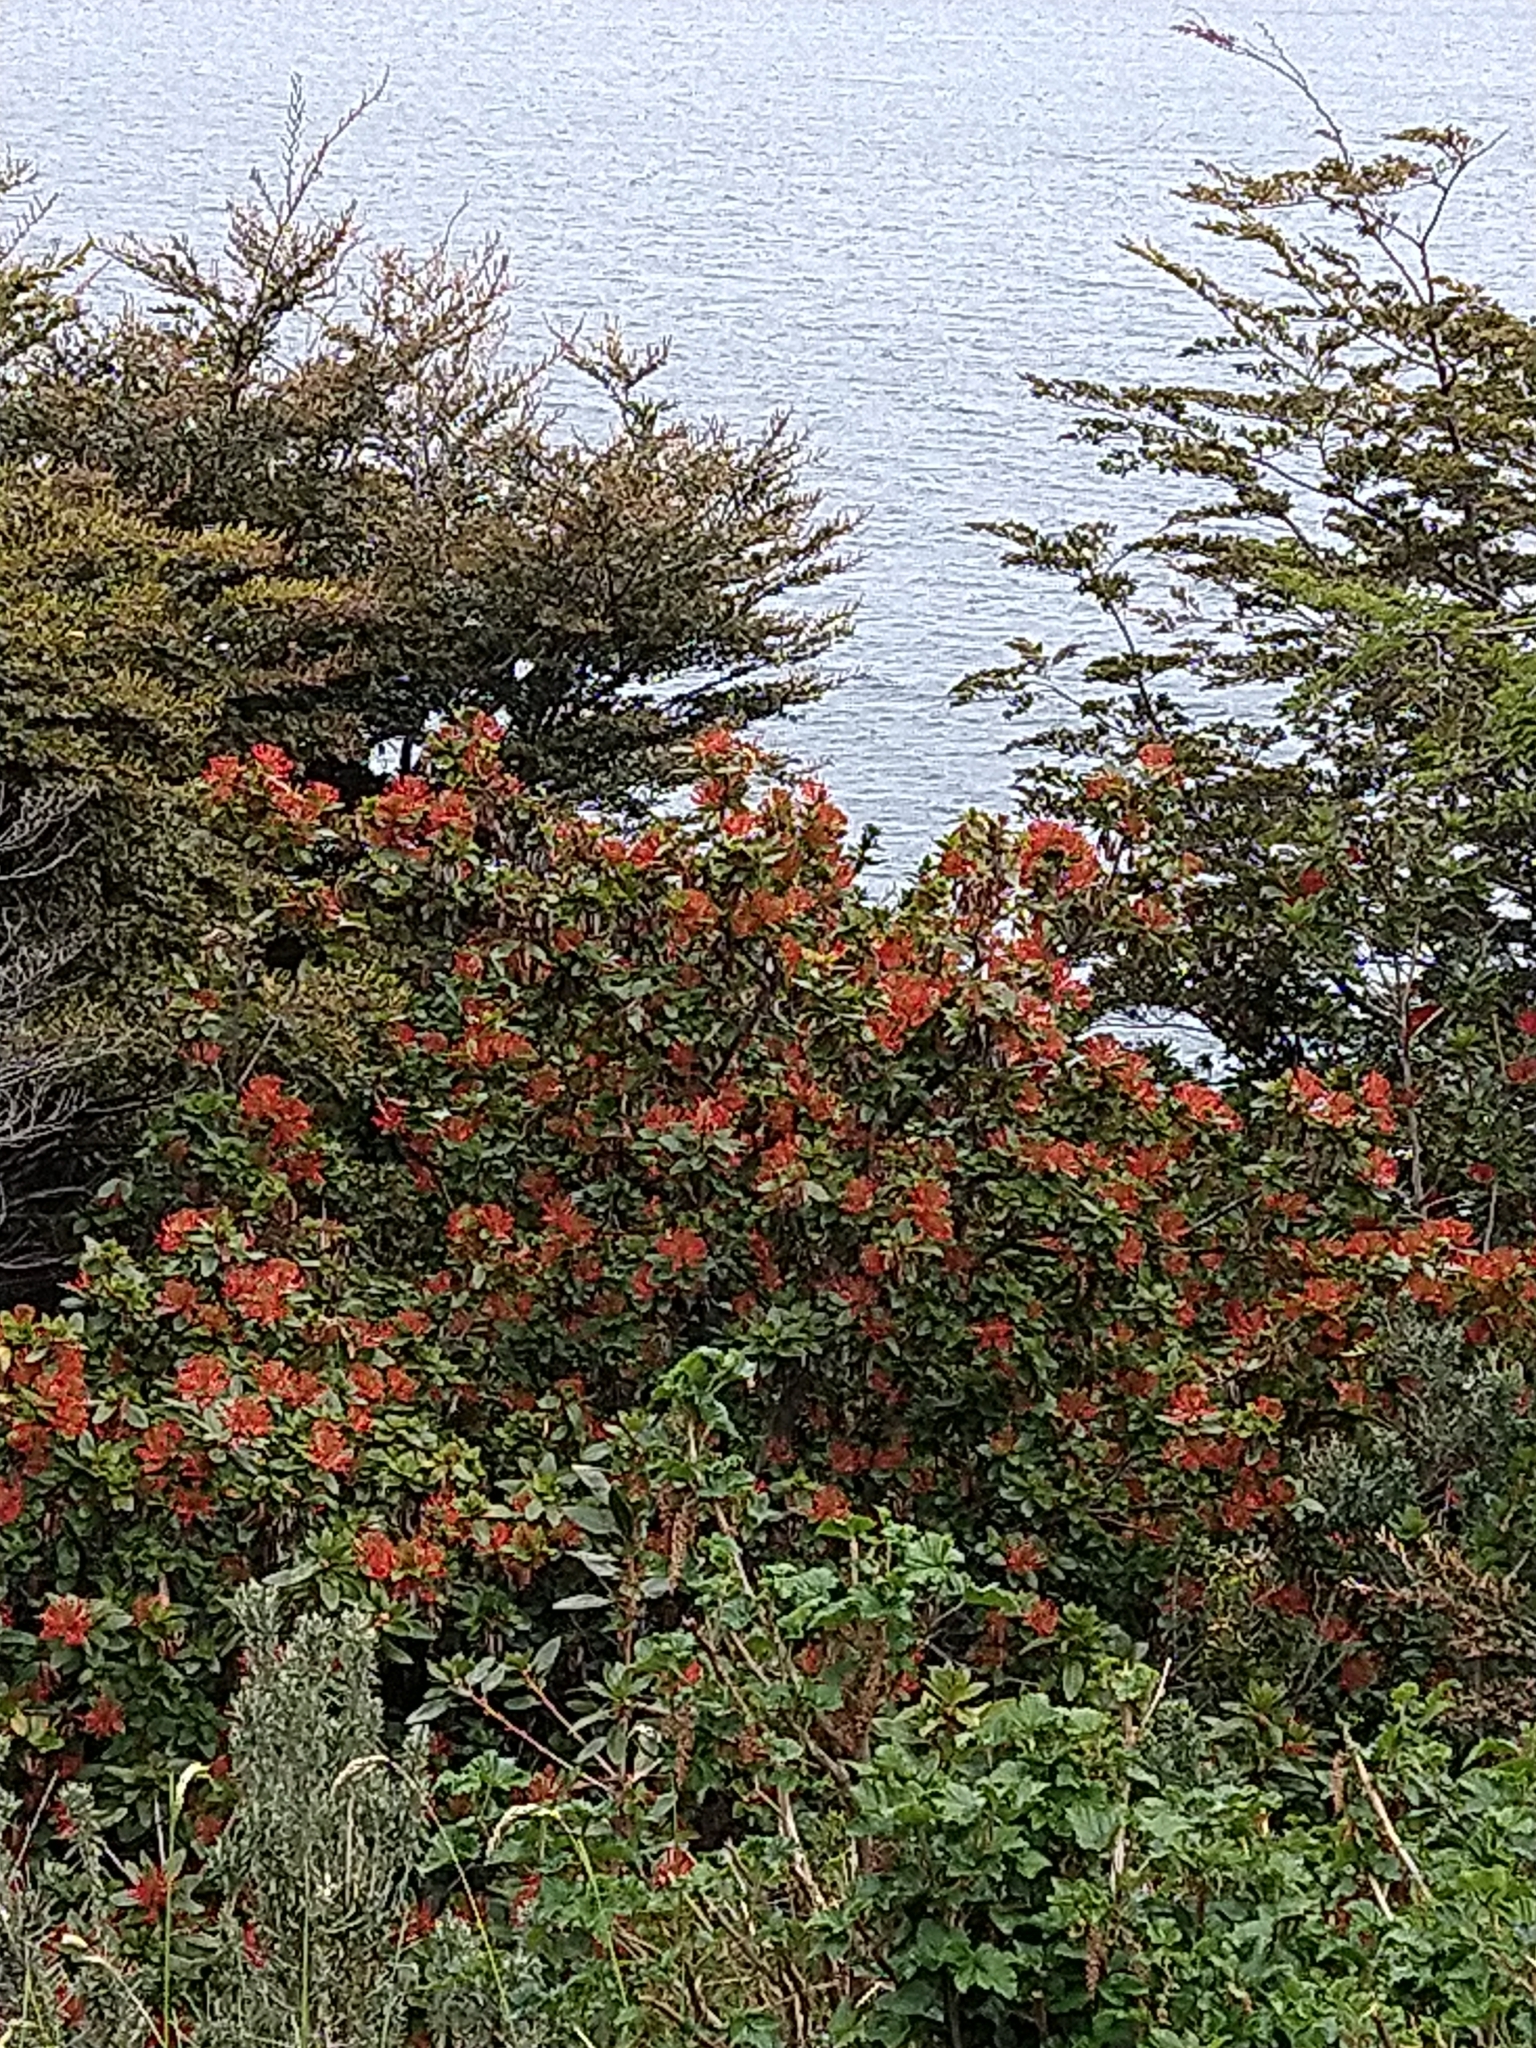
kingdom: Plantae
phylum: Tracheophyta
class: Magnoliopsida
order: Proteales
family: Proteaceae
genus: Embothrium
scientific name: Embothrium coccineum
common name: Chilean firebush
